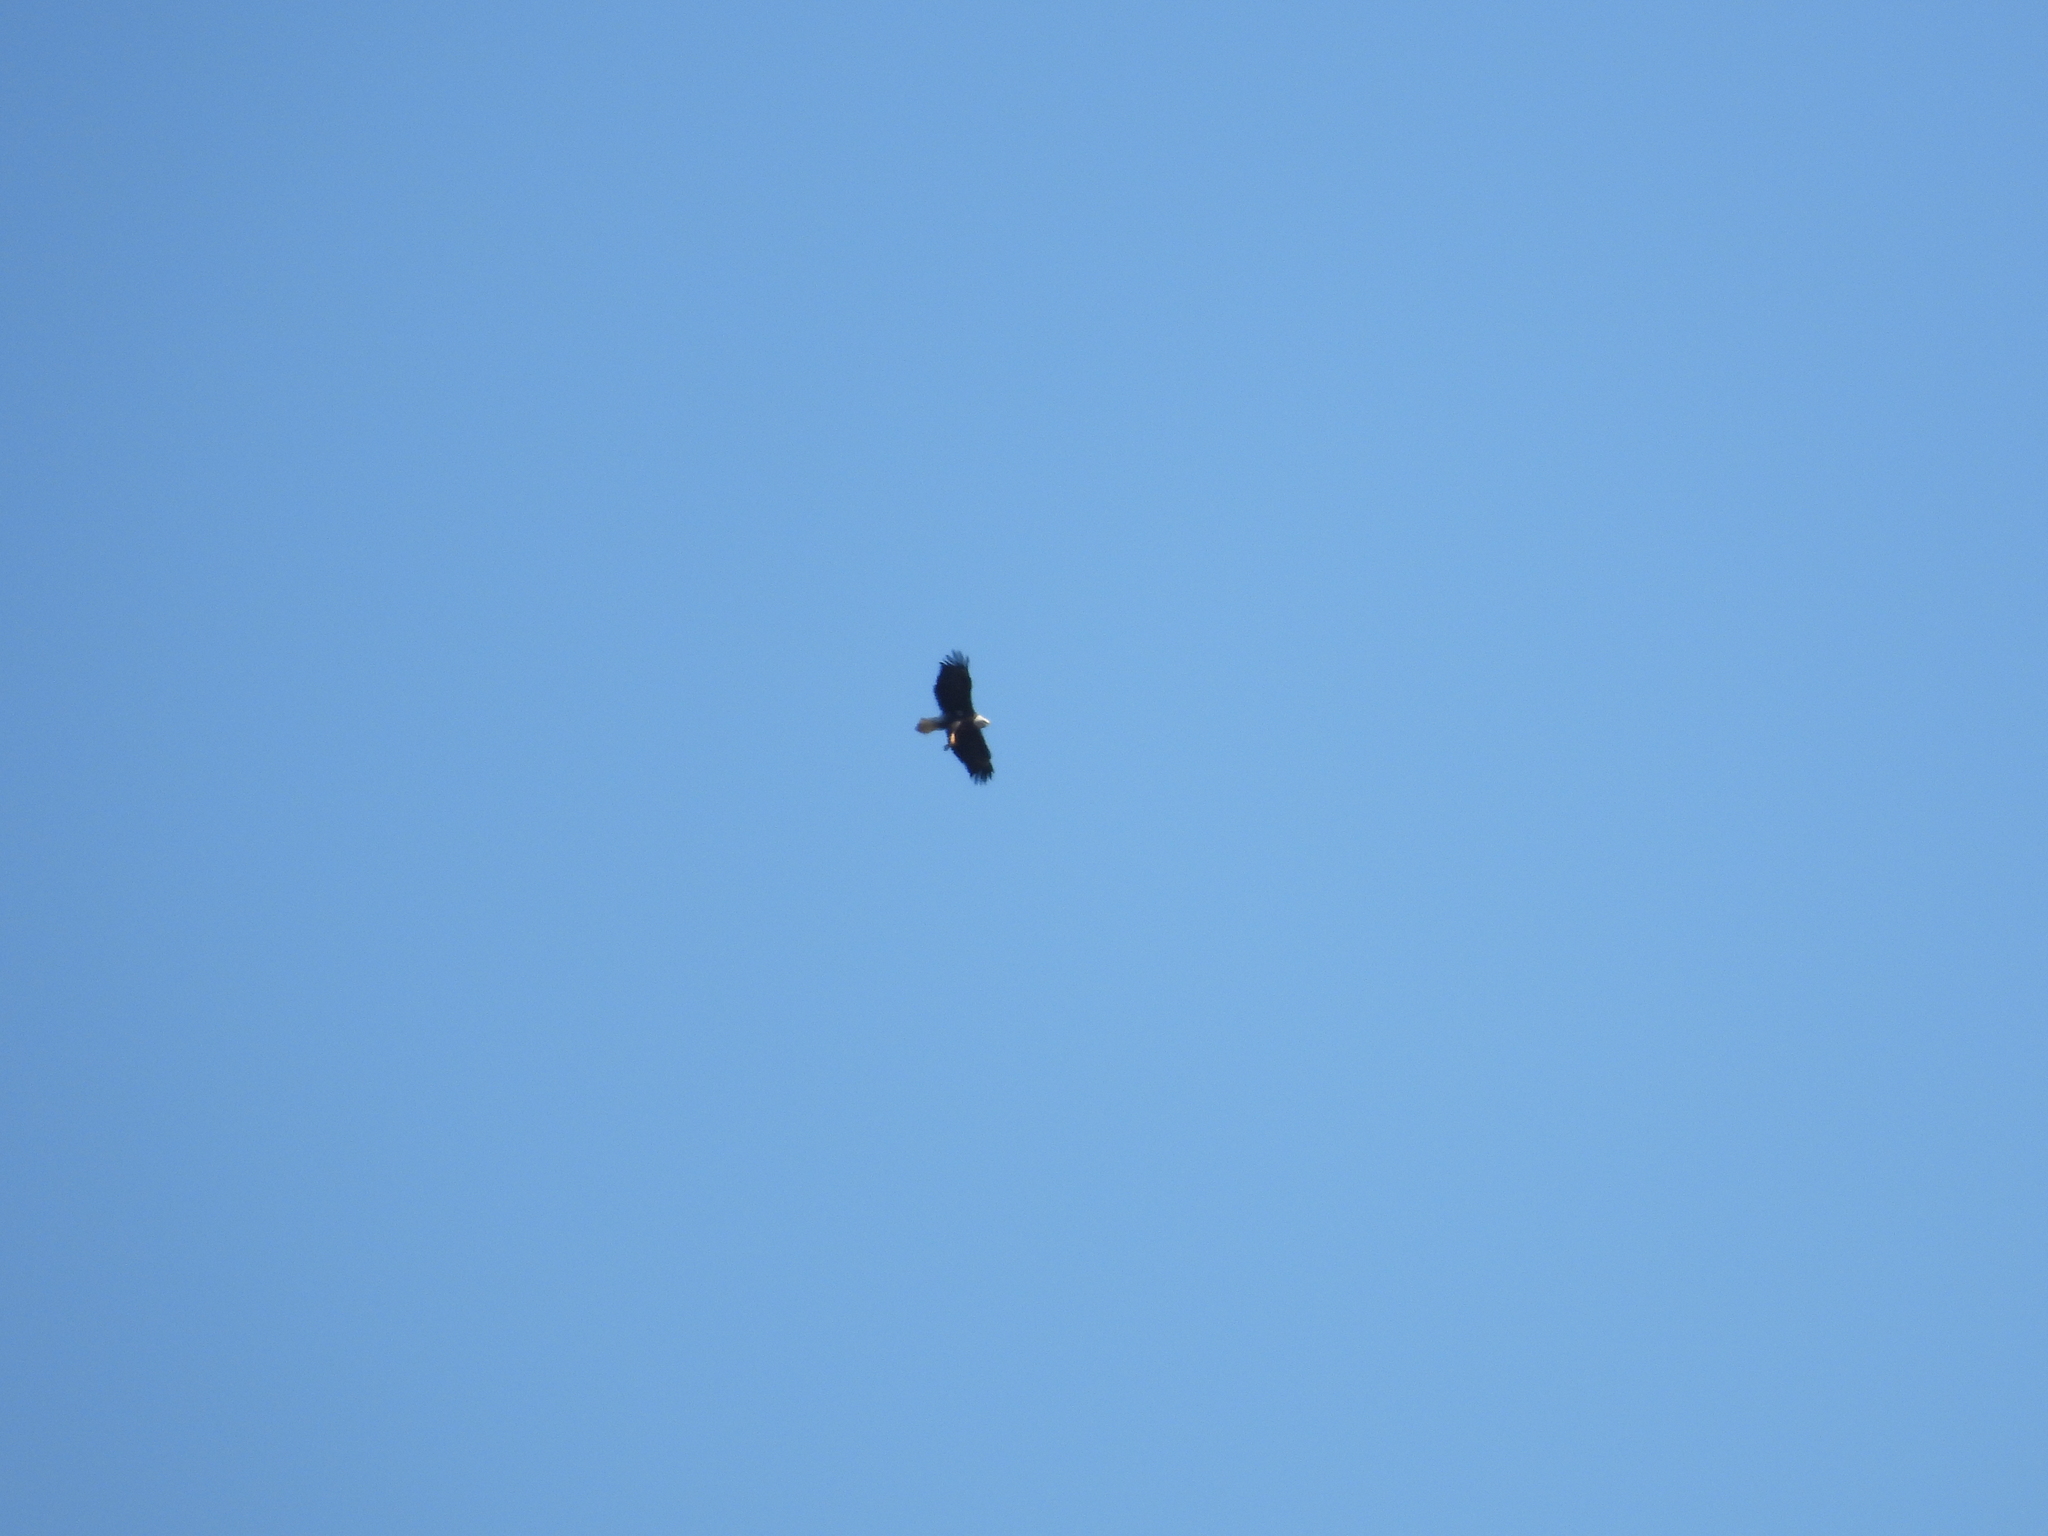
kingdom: Animalia
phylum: Chordata
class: Aves
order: Accipitriformes
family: Accipitridae
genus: Haliaeetus
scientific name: Haliaeetus leucocephalus
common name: Bald eagle
